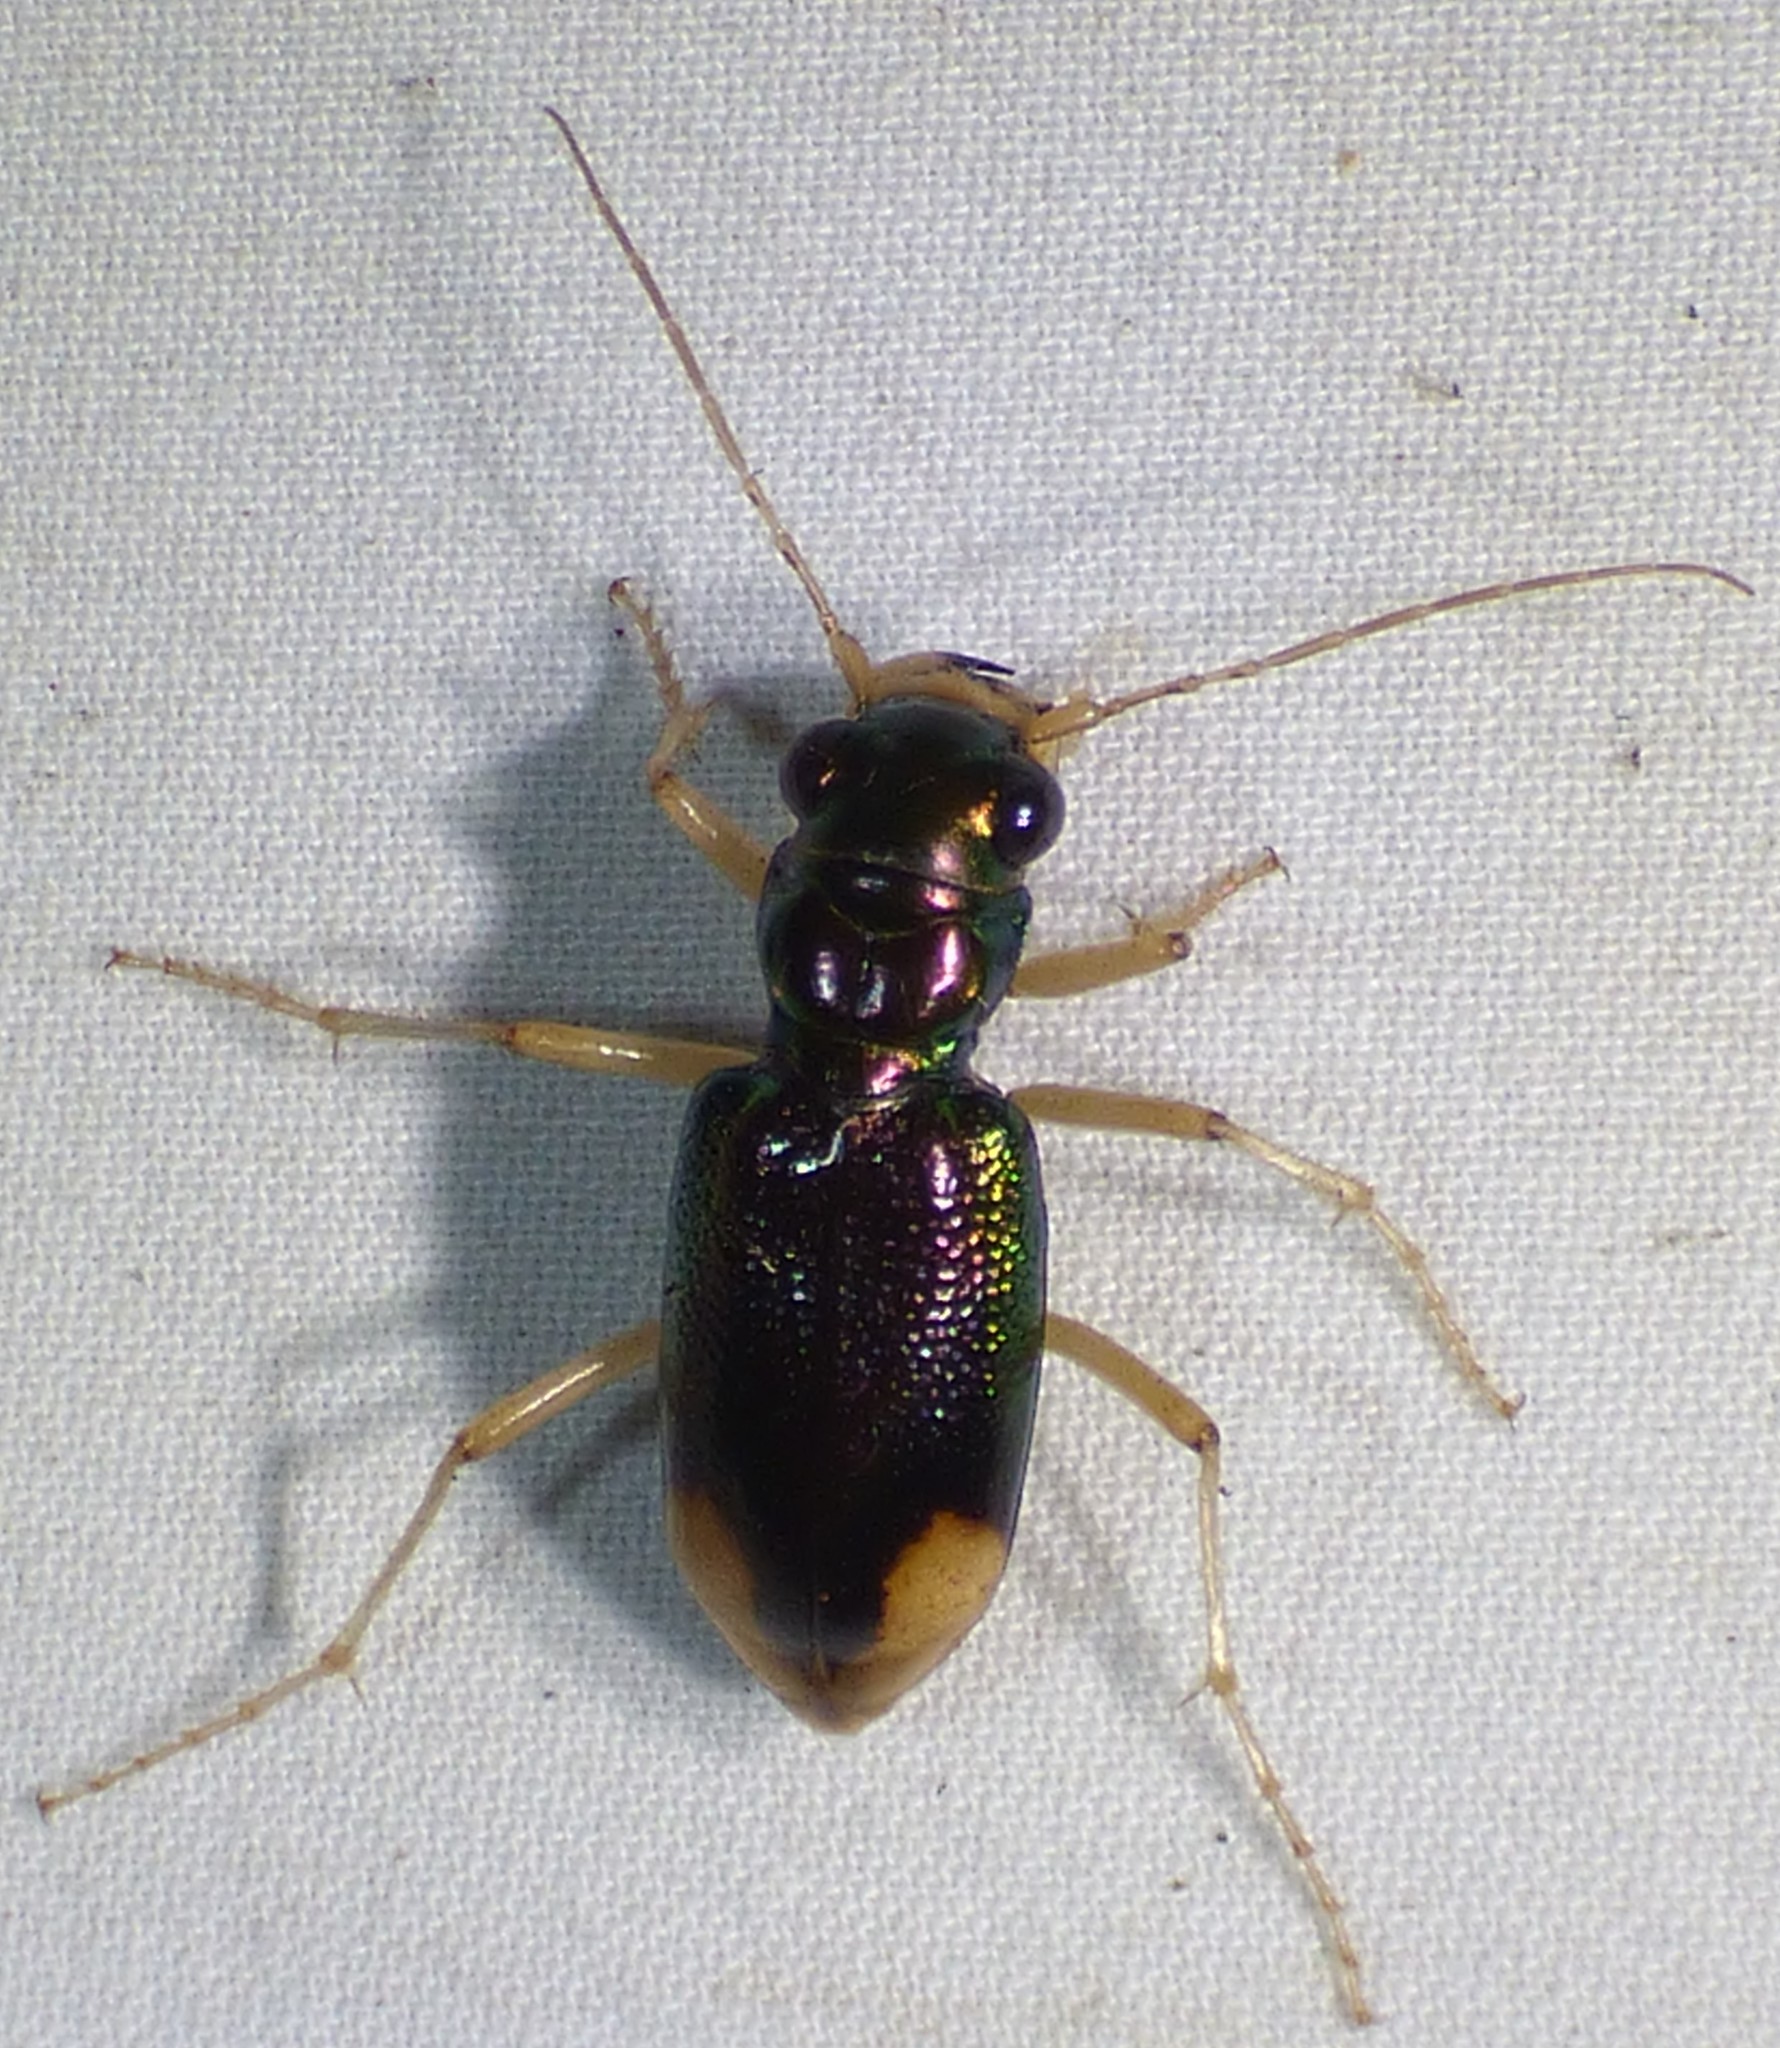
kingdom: Animalia
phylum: Arthropoda
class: Insecta
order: Coleoptera
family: Carabidae
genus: Tetracha
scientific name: Tetracha carolina
